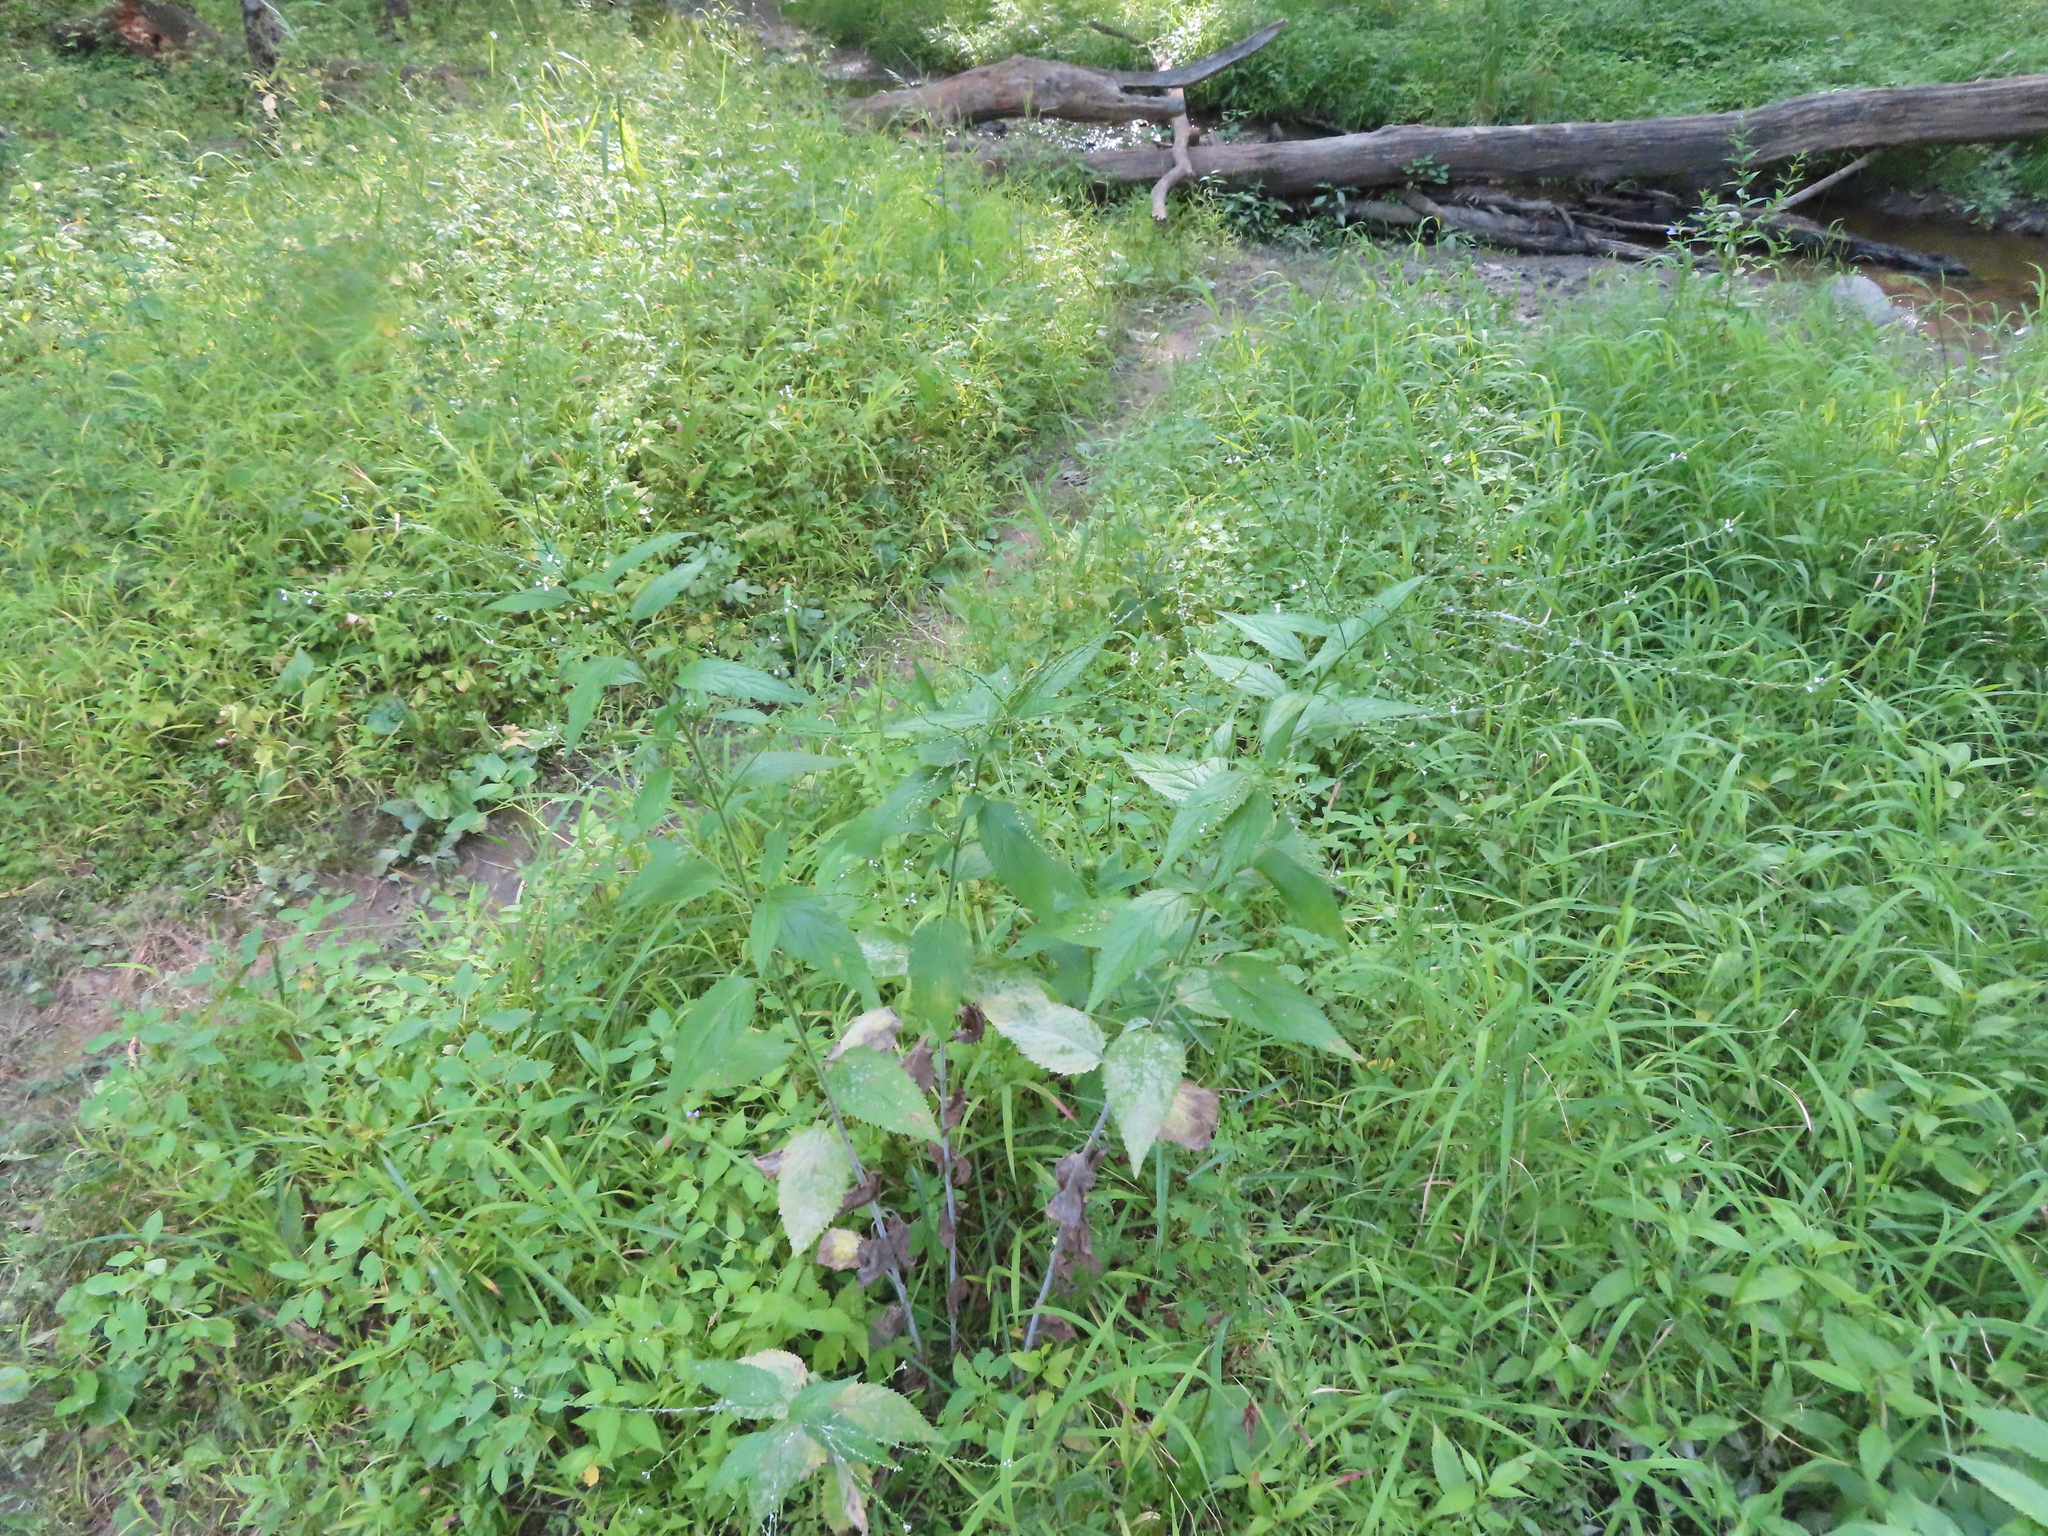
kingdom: Fungi
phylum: Ascomycota
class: Leotiomycetes
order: Helotiales
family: Erysiphaceae
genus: Golovinomyces
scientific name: Golovinomyces verbenae
